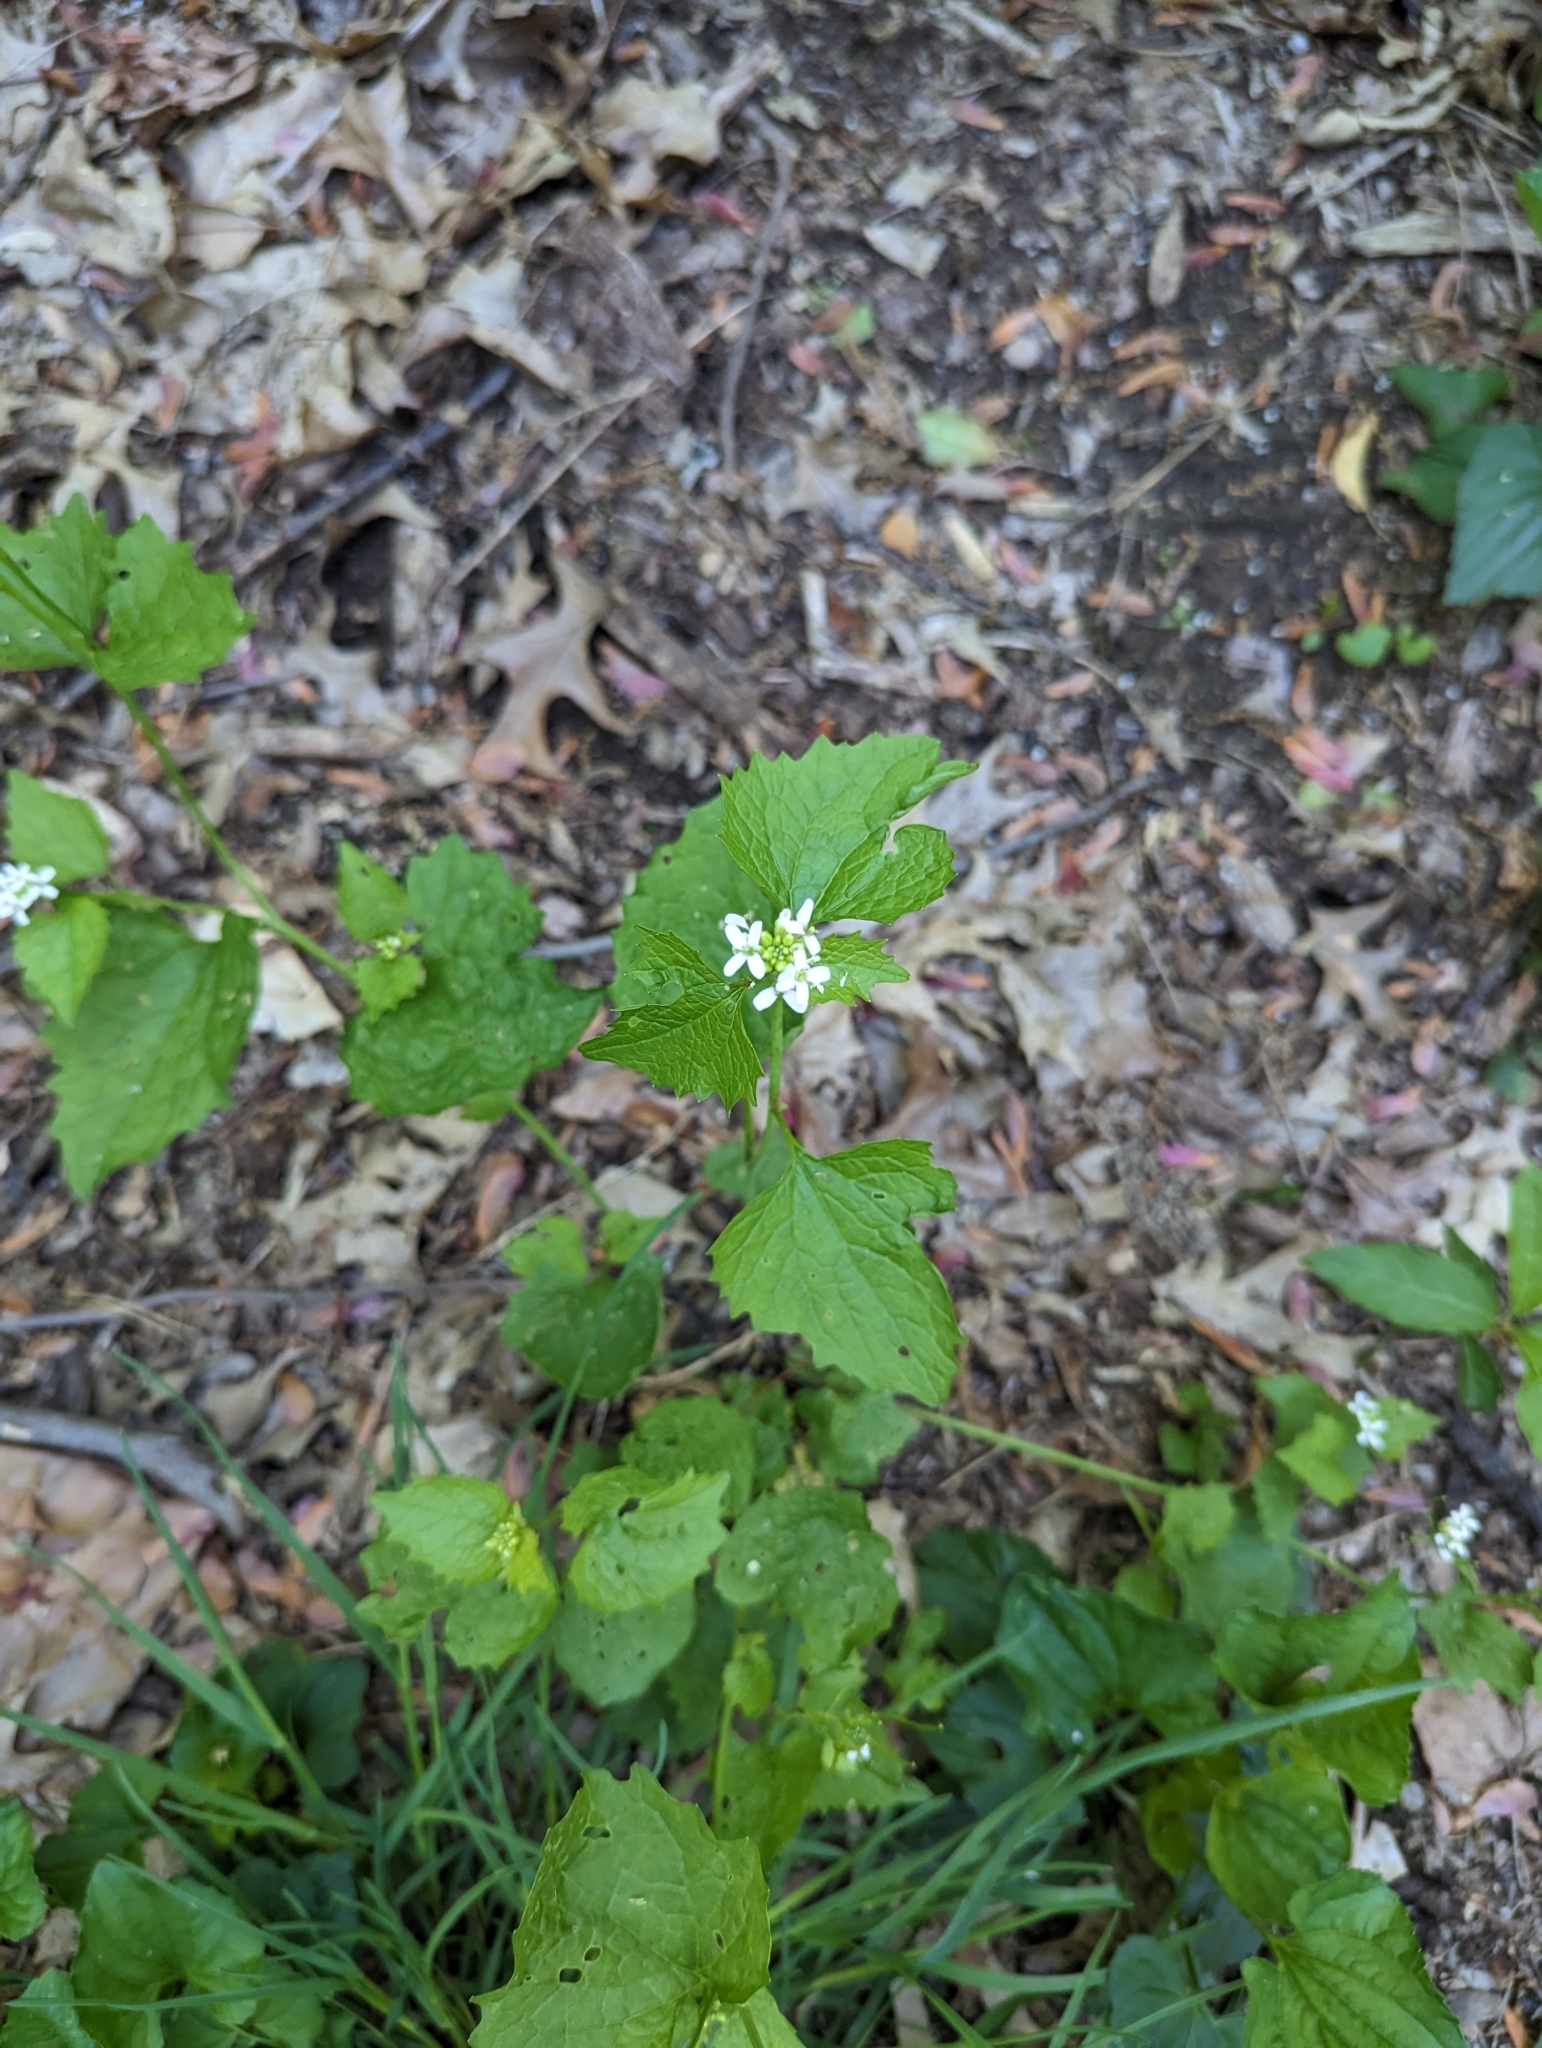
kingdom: Plantae
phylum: Tracheophyta
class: Magnoliopsida
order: Brassicales
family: Brassicaceae
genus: Alliaria
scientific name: Alliaria petiolata
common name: Garlic mustard
